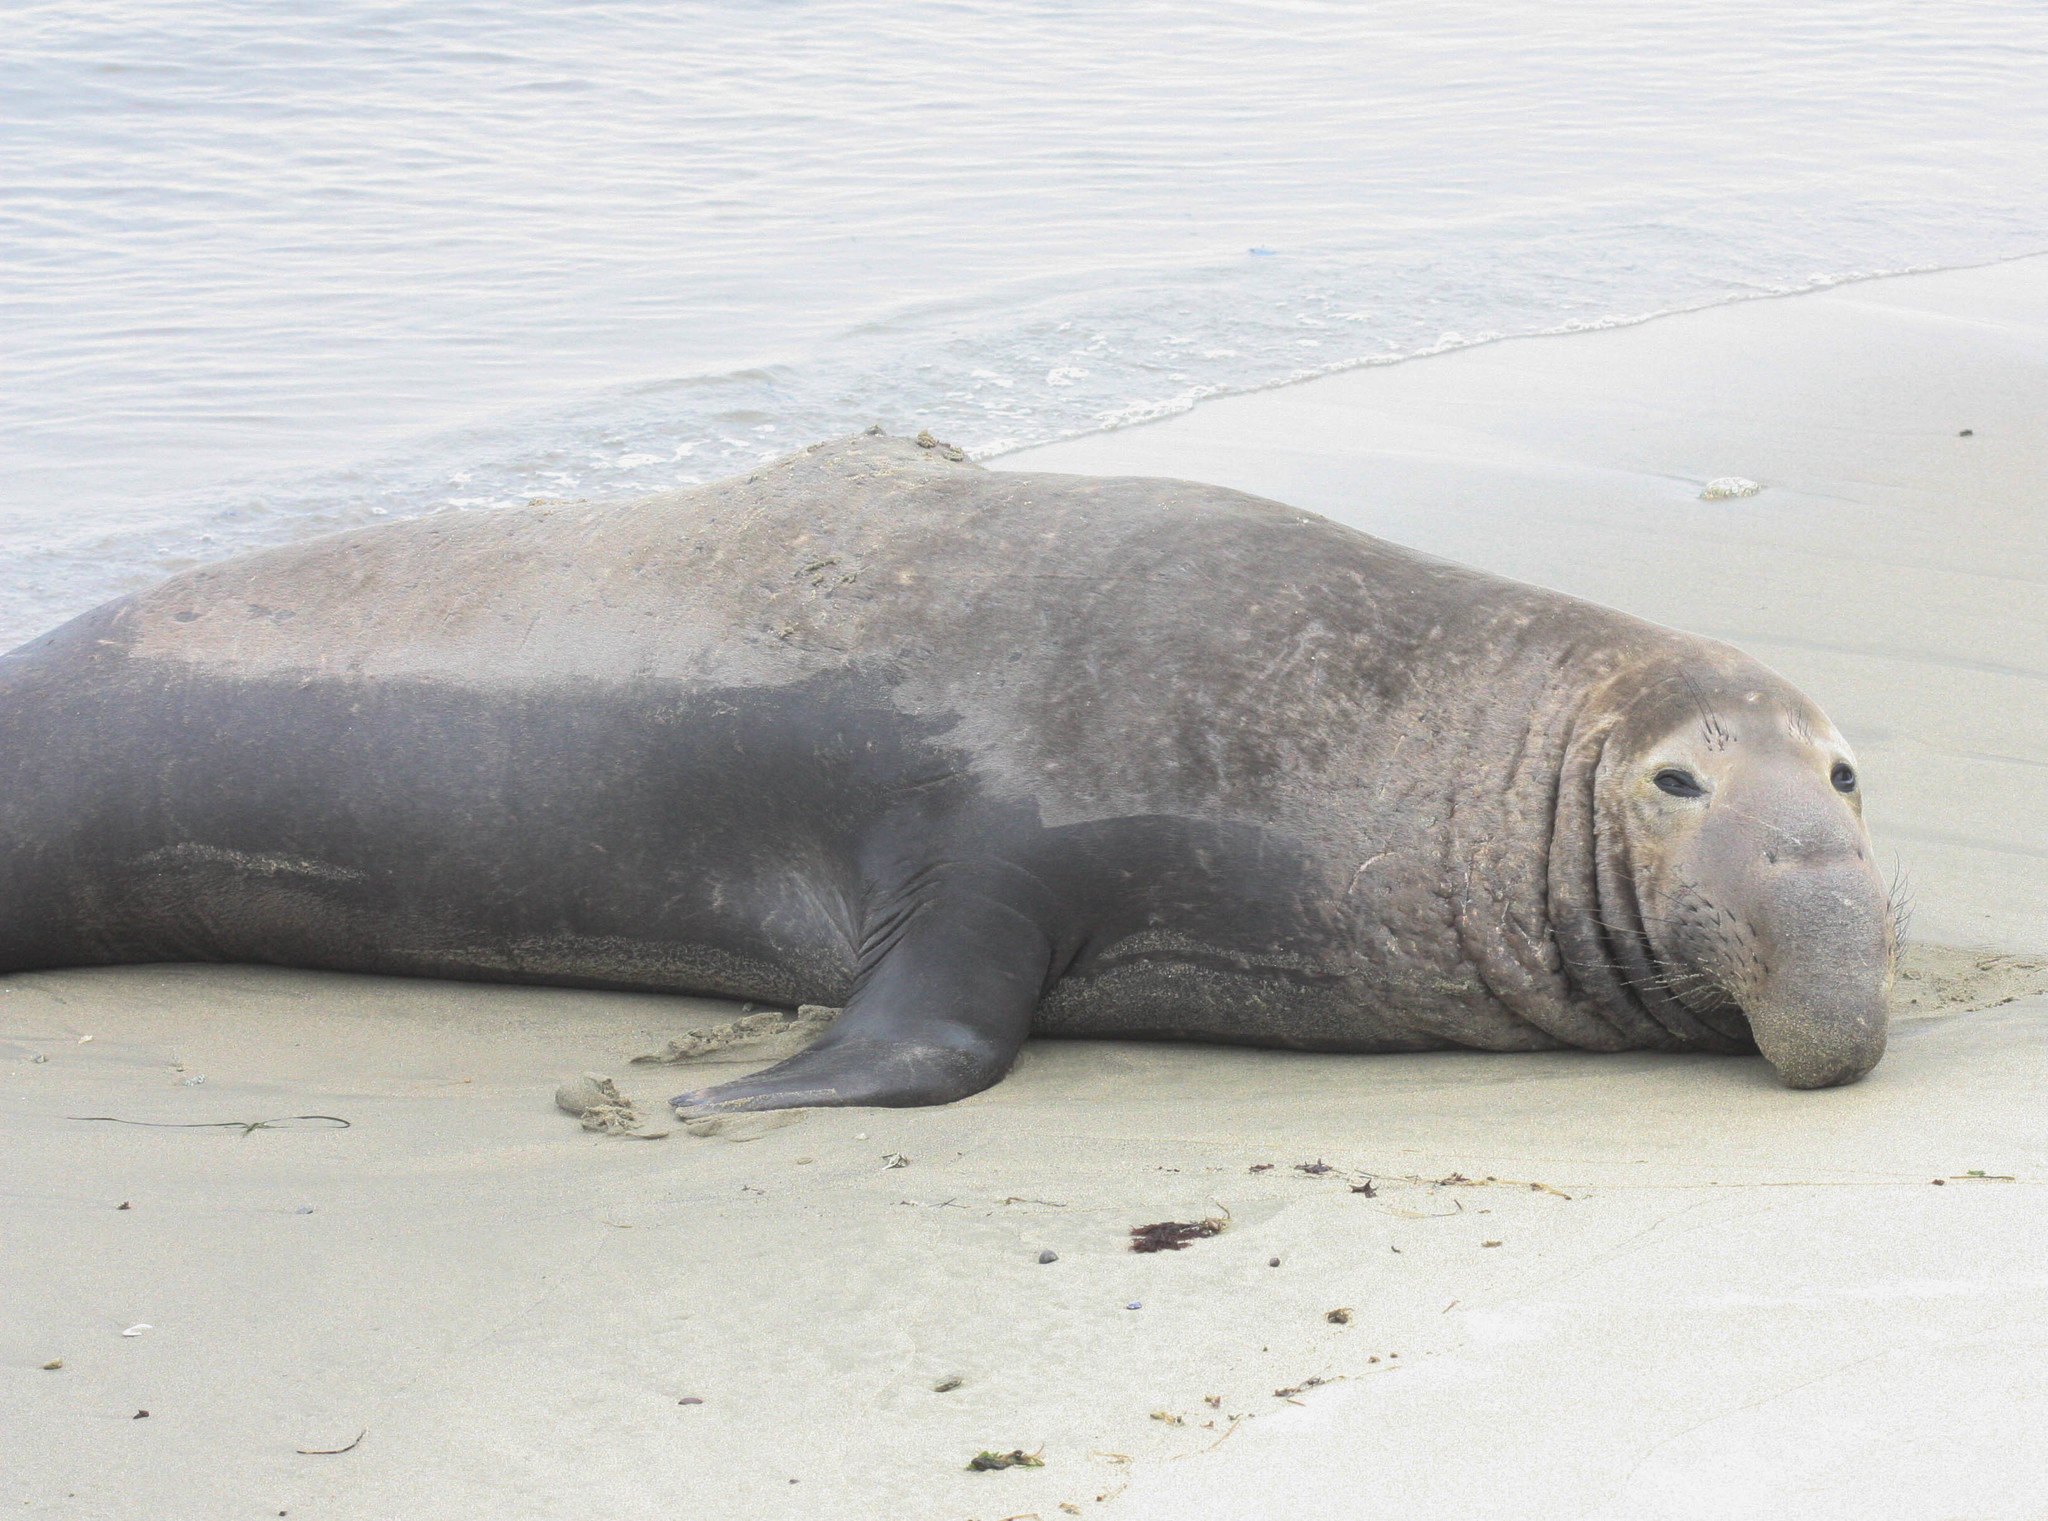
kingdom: Animalia
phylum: Chordata
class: Mammalia
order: Carnivora
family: Phocidae
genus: Mirounga
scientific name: Mirounga angustirostris
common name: Northern elephant seal
